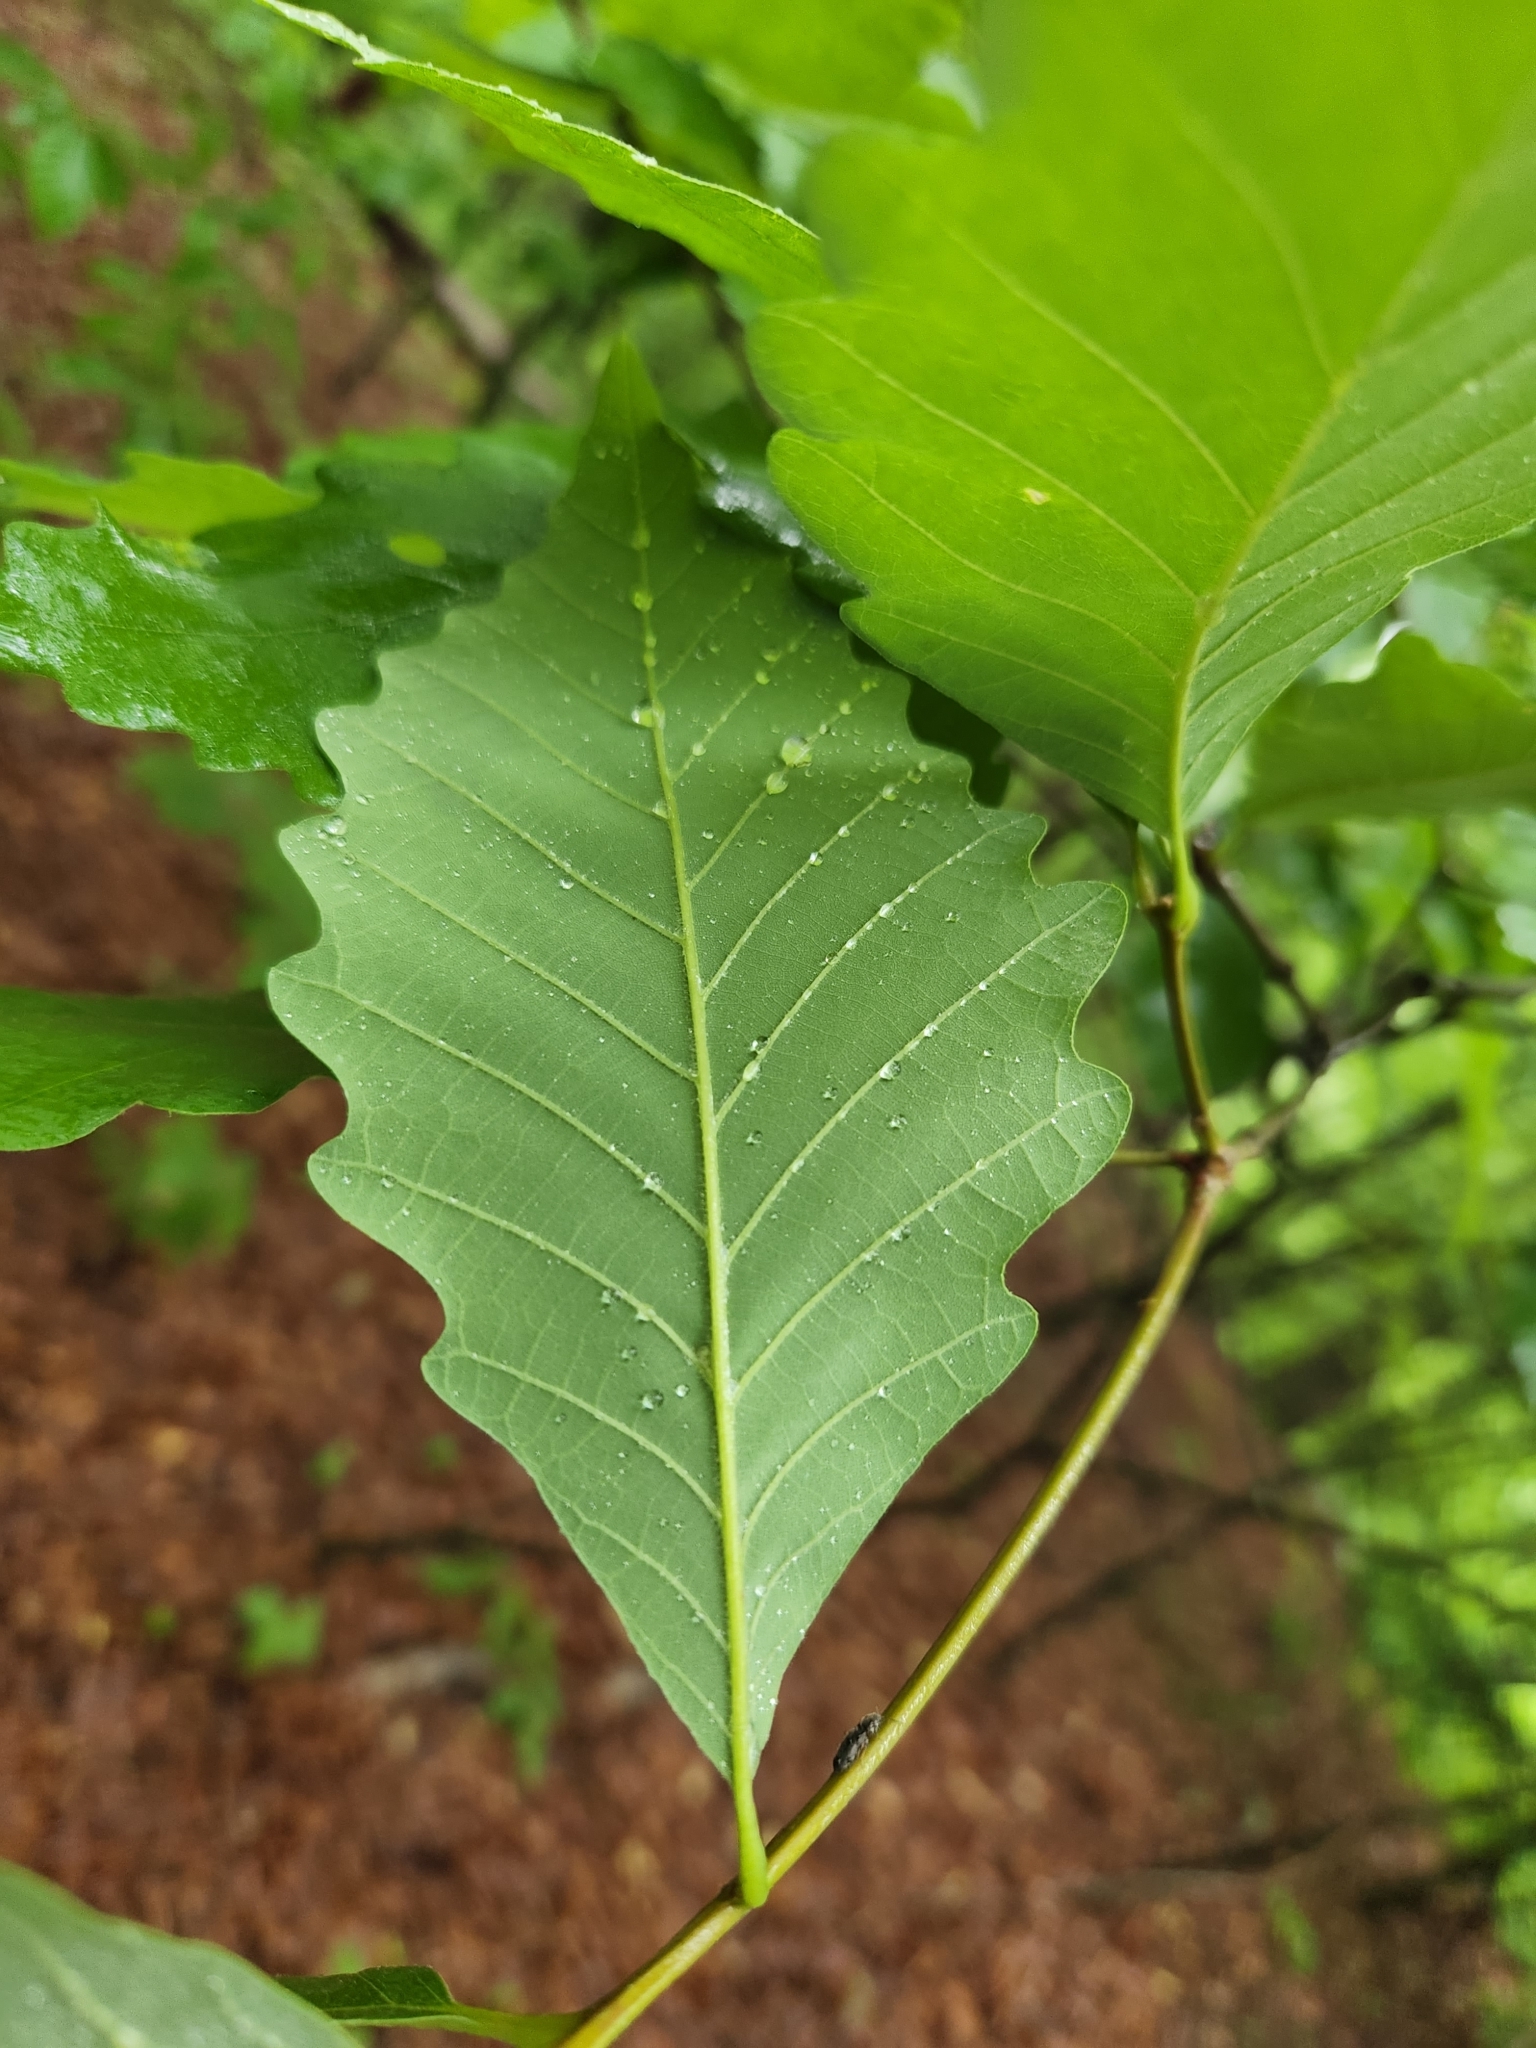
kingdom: Plantae
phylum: Tracheophyta
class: Magnoliopsida
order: Fagales
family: Fagaceae
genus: Quercus
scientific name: Quercus montana
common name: Chestnut oak
